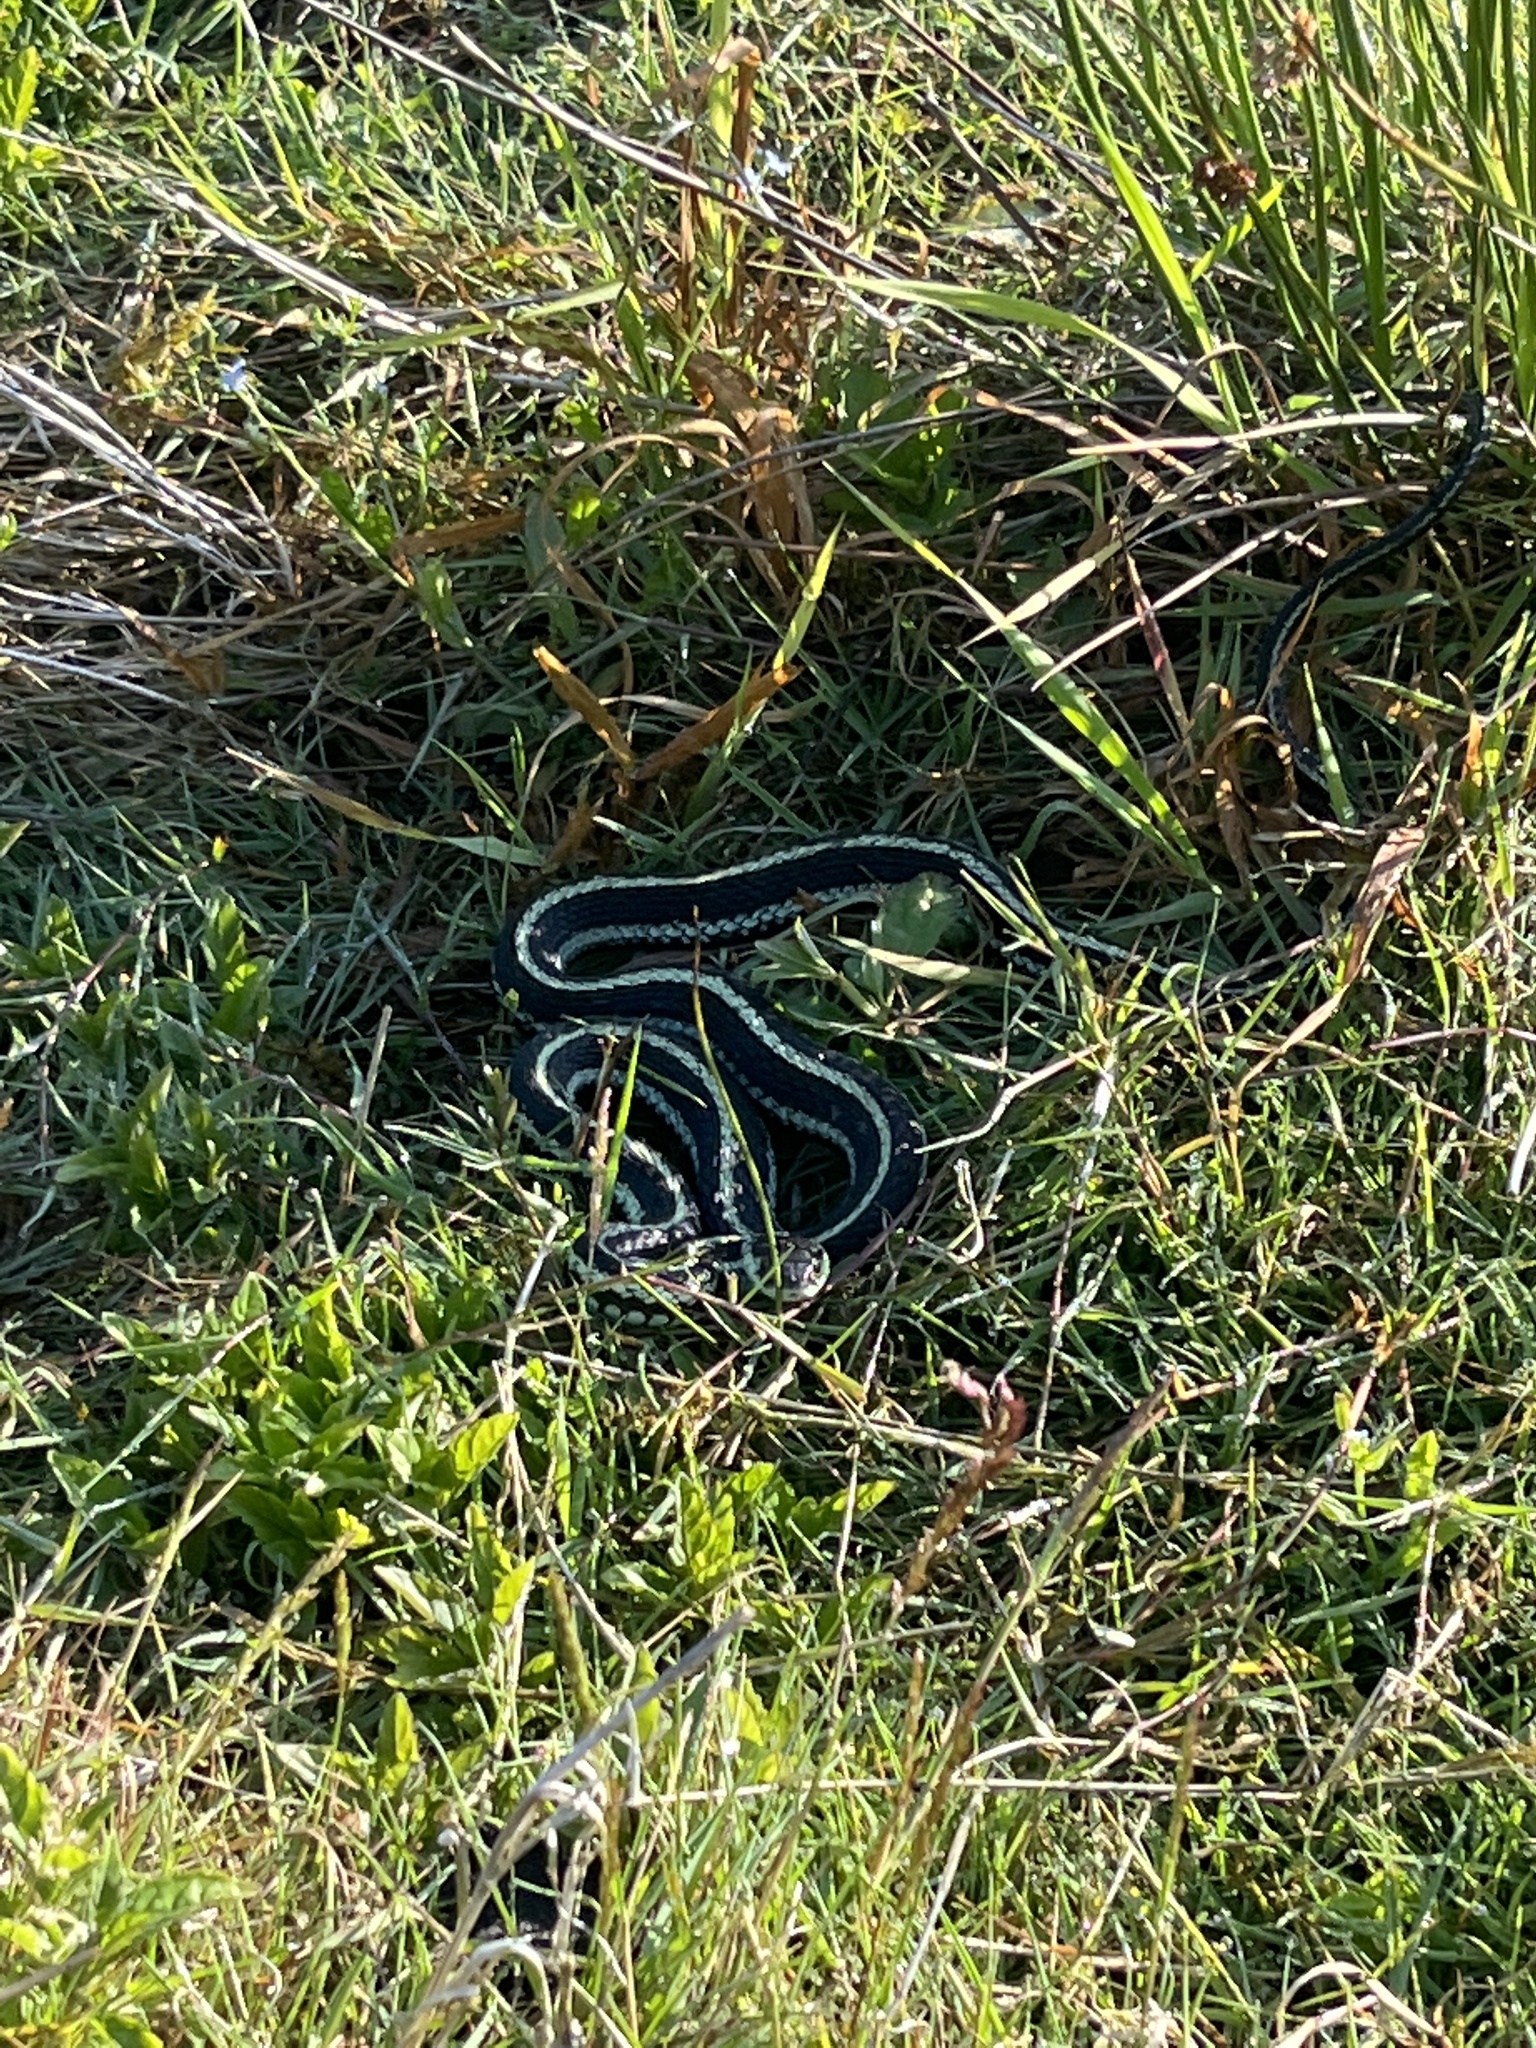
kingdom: Animalia
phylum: Chordata
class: Squamata
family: Colubridae
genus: Thamnophis
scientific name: Thamnophis sirtalis
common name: Common garter snake
